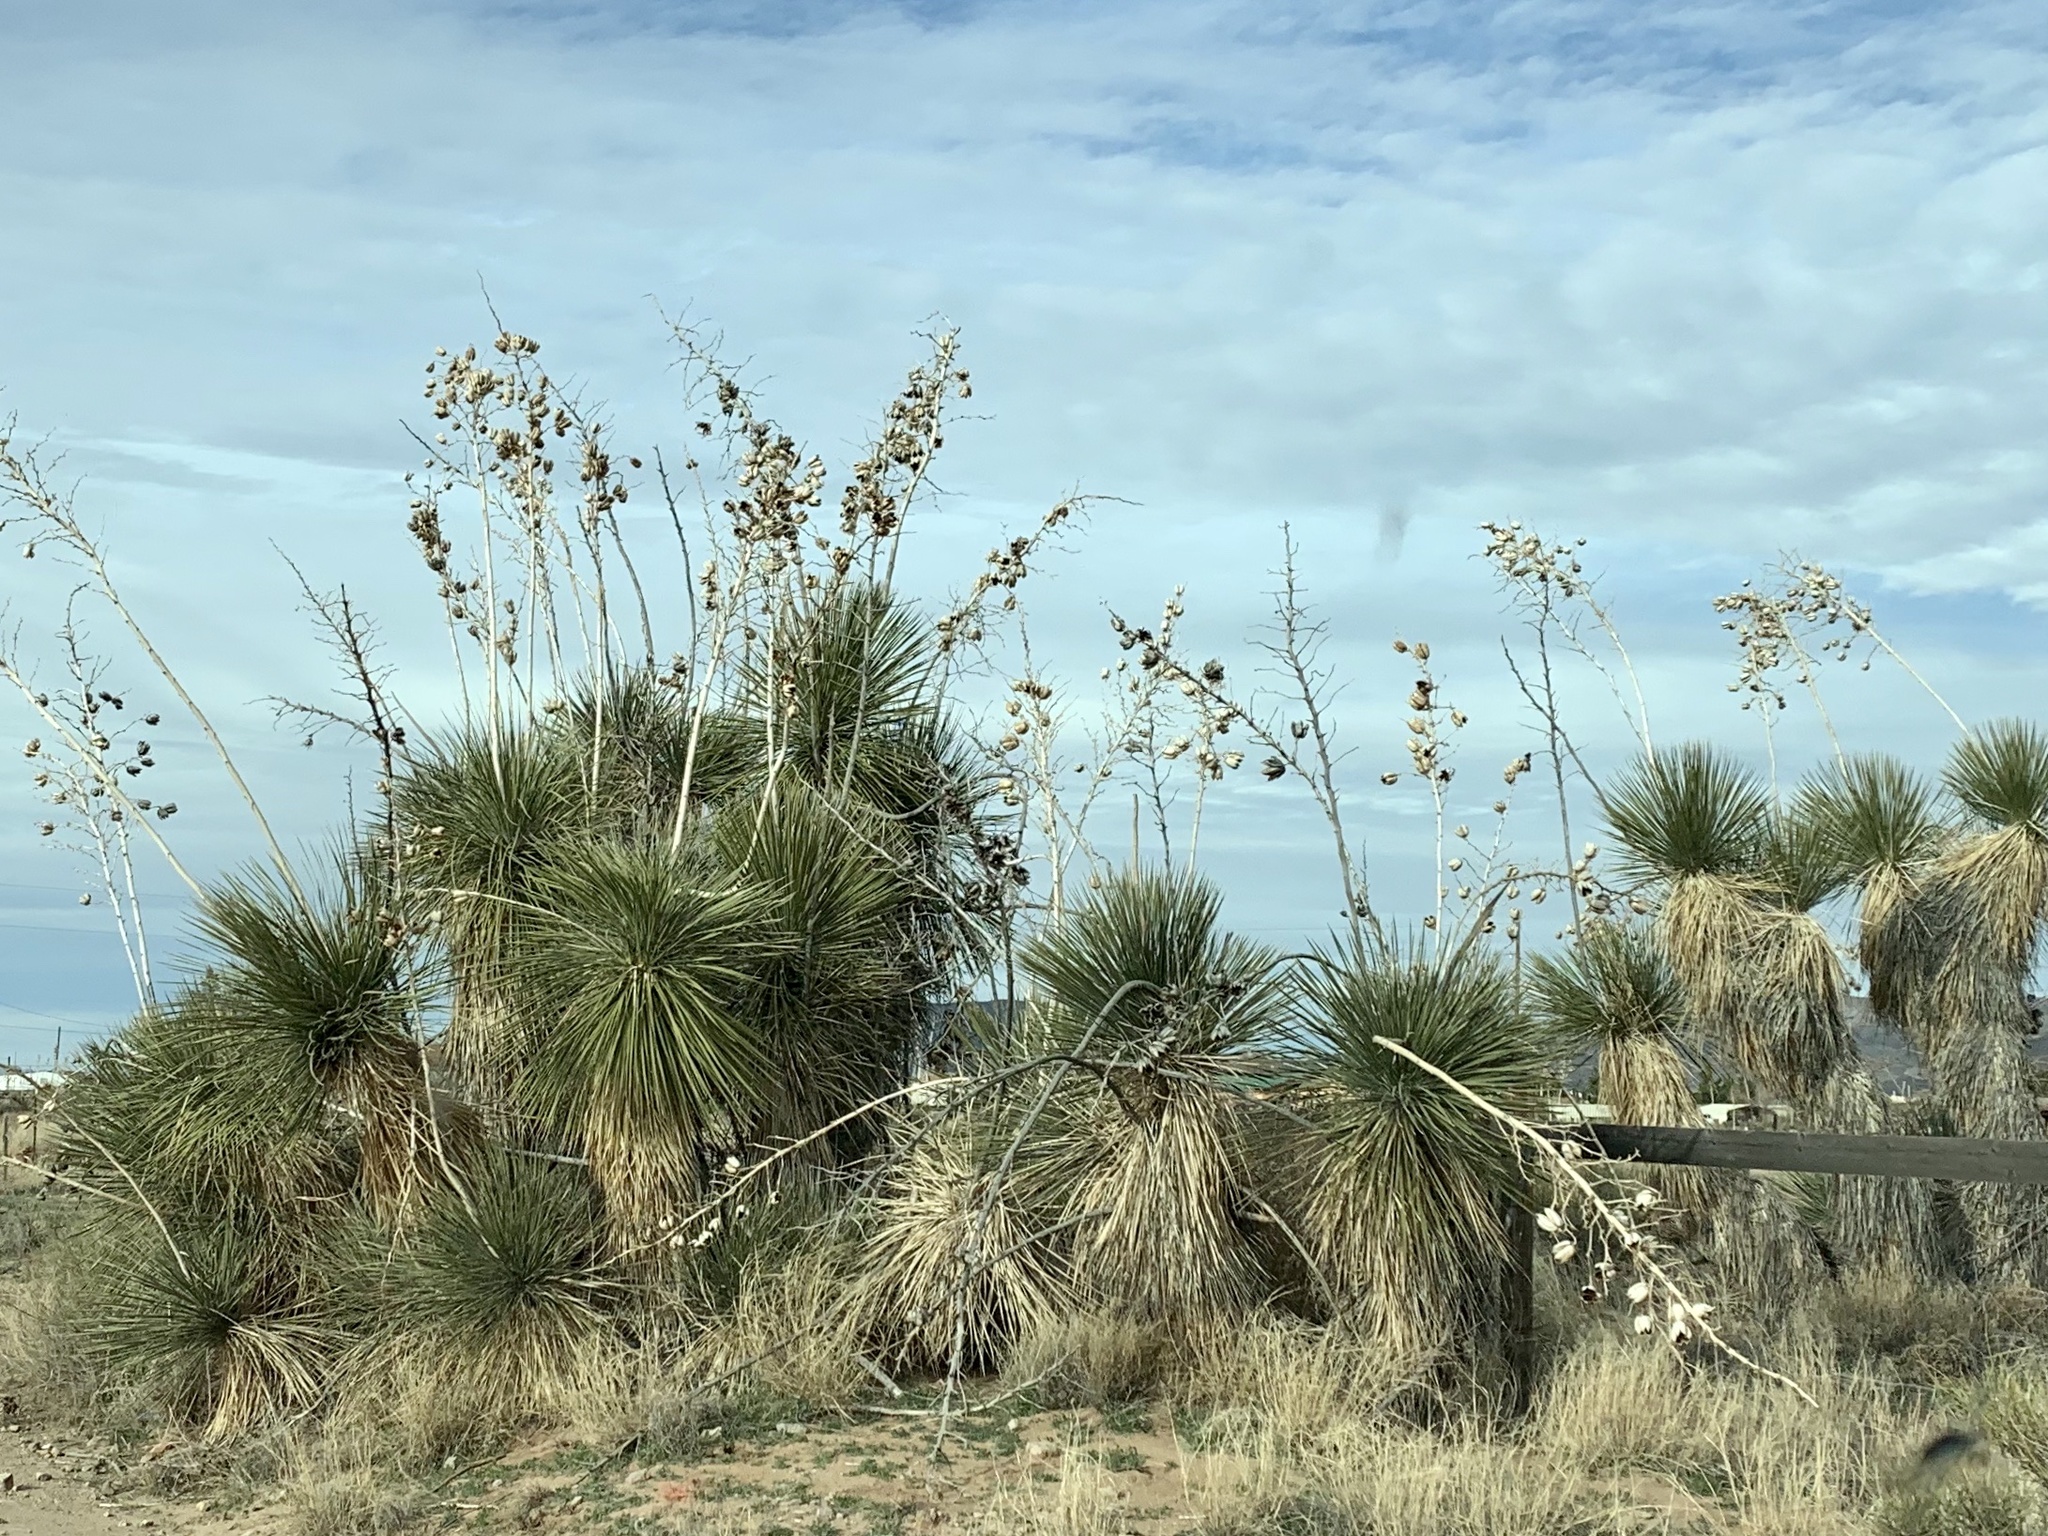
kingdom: Plantae
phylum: Tracheophyta
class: Liliopsida
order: Asparagales
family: Asparagaceae
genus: Yucca
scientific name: Yucca elata
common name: Palmella
